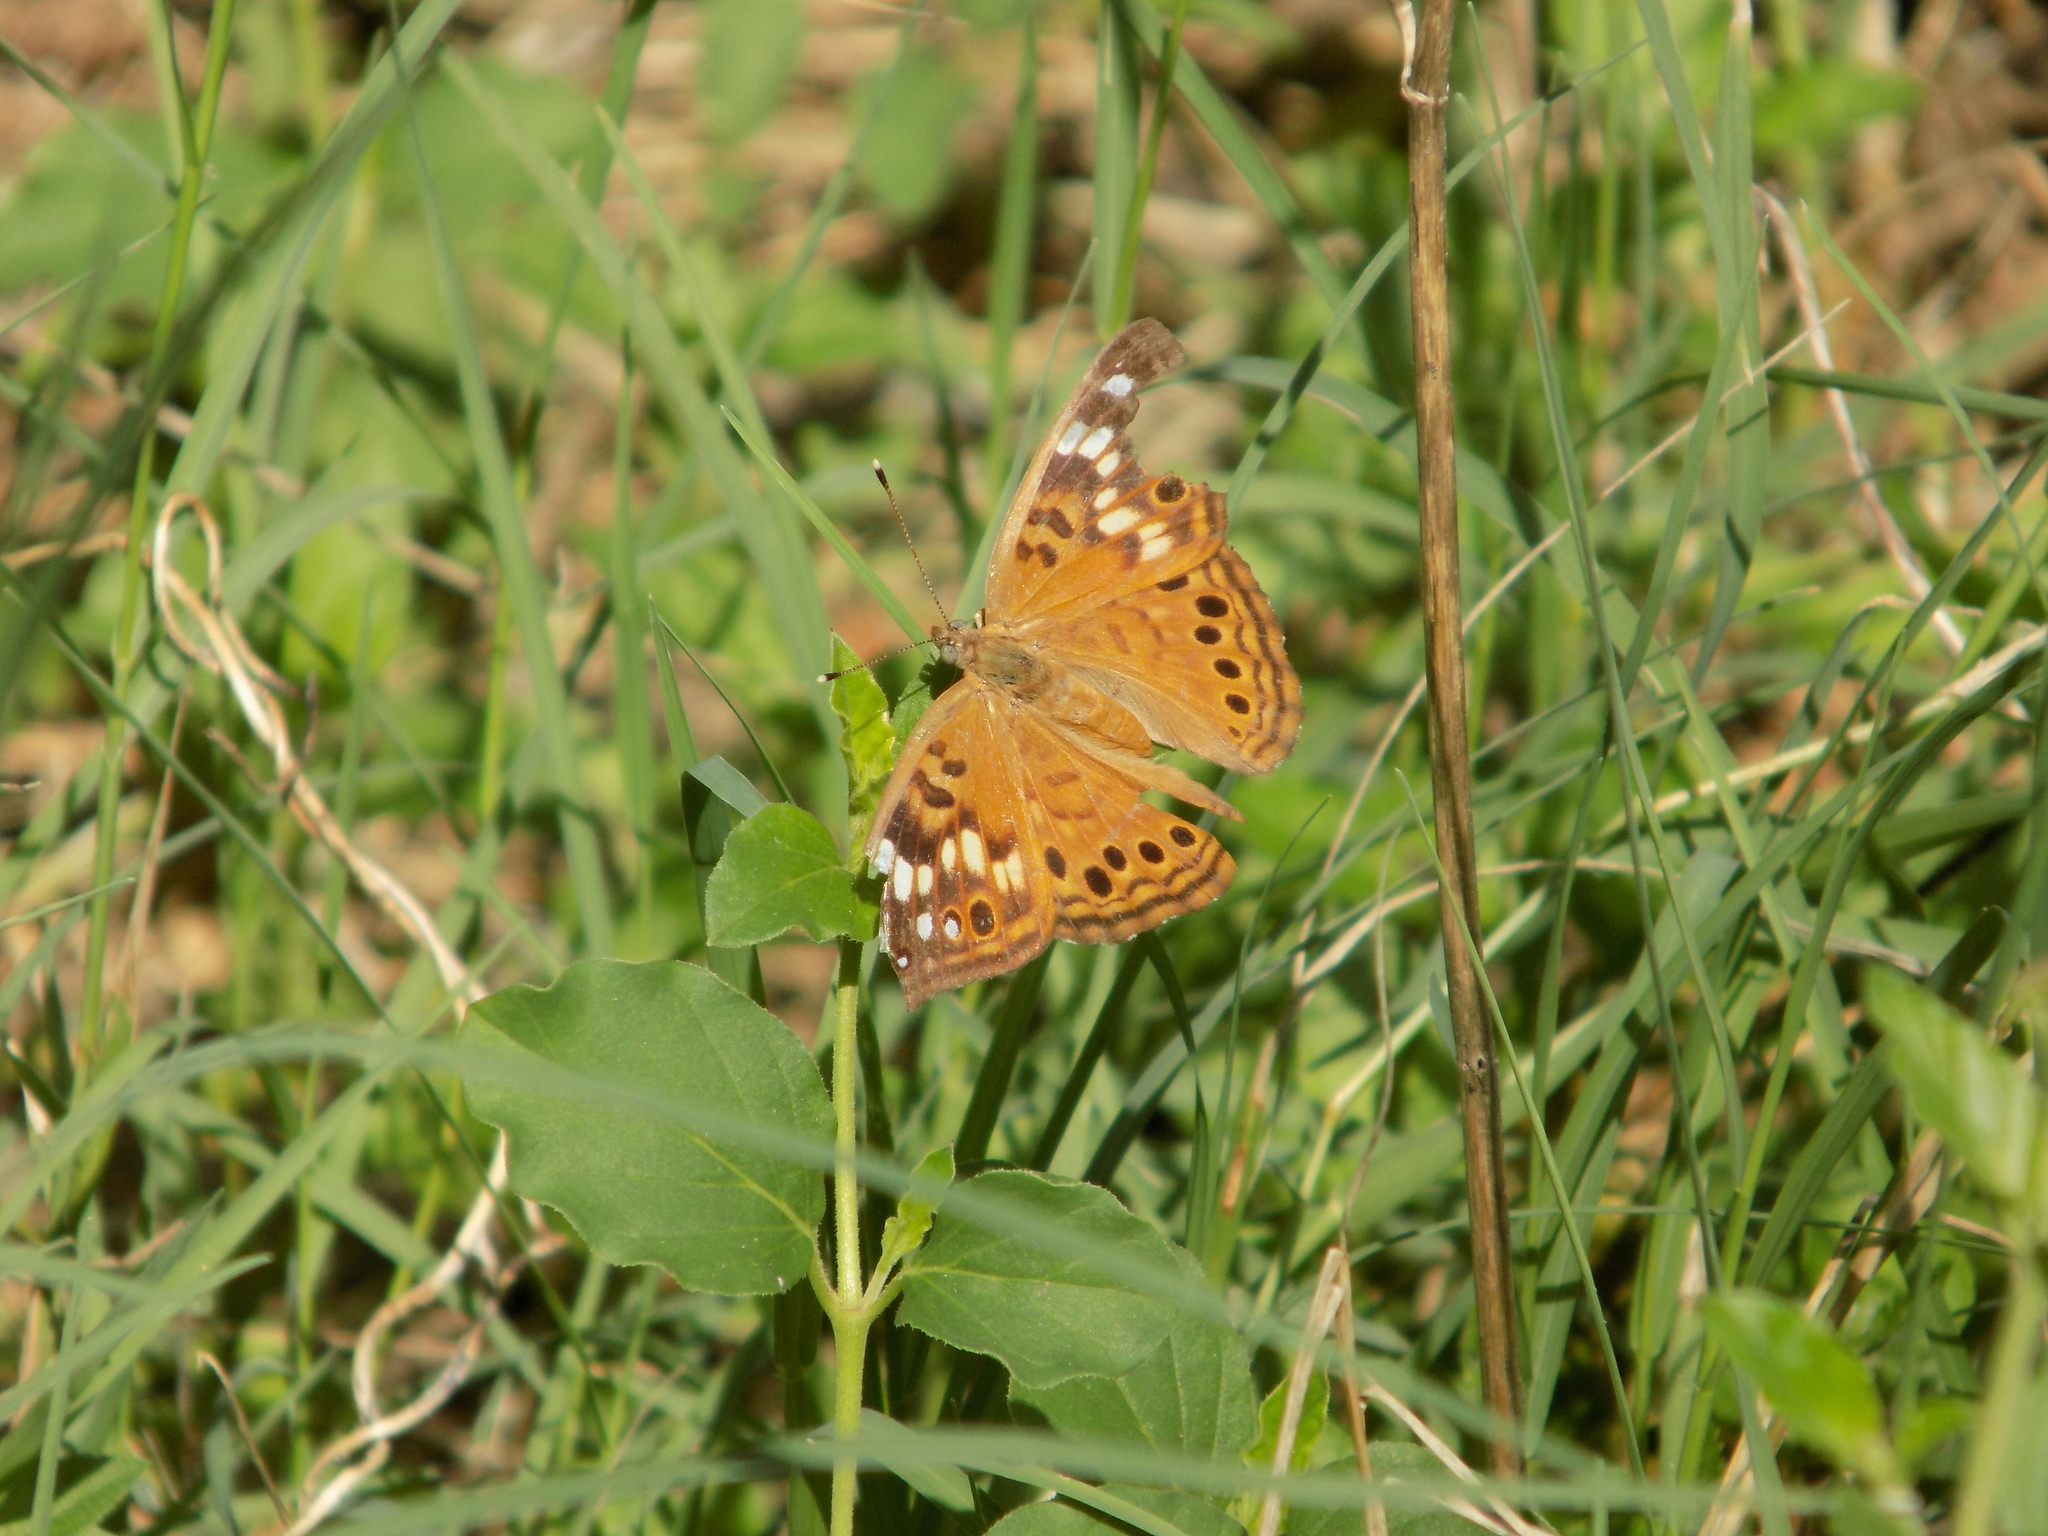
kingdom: Animalia
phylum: Arthropoda
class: Insecta
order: Lepidoptera
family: Nymphalidae
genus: Asterocampa
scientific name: Asterocampa celtis
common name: Hackberry emperor
